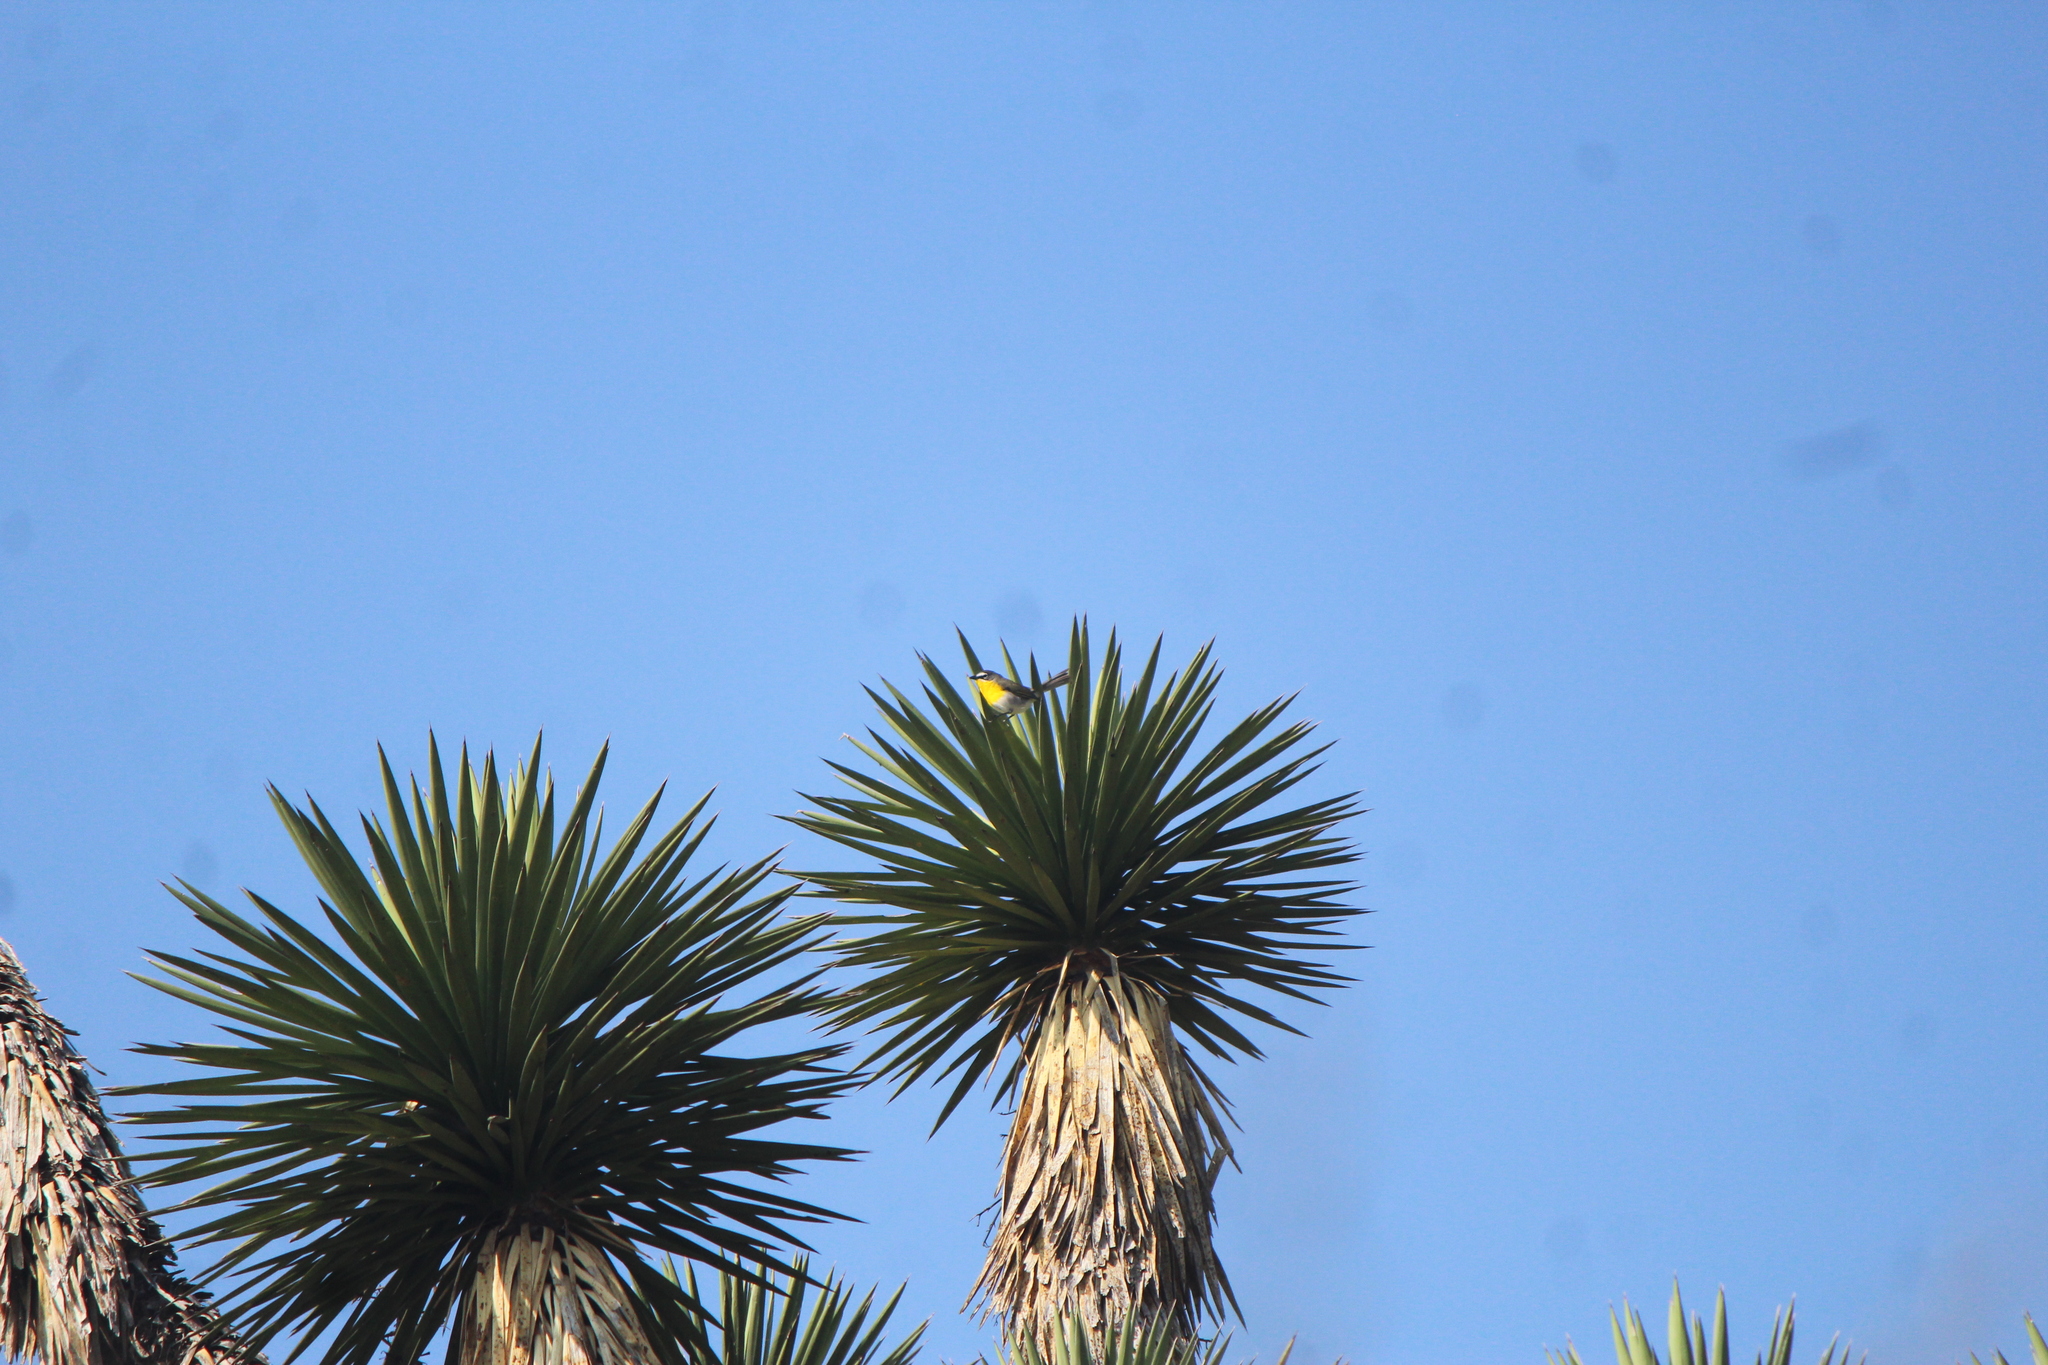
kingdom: Animalia
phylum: Chordata
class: Aves
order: Passeriformes
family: Parulidae
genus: Icteria
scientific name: Icteria virens
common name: Yellow-breasted chat
